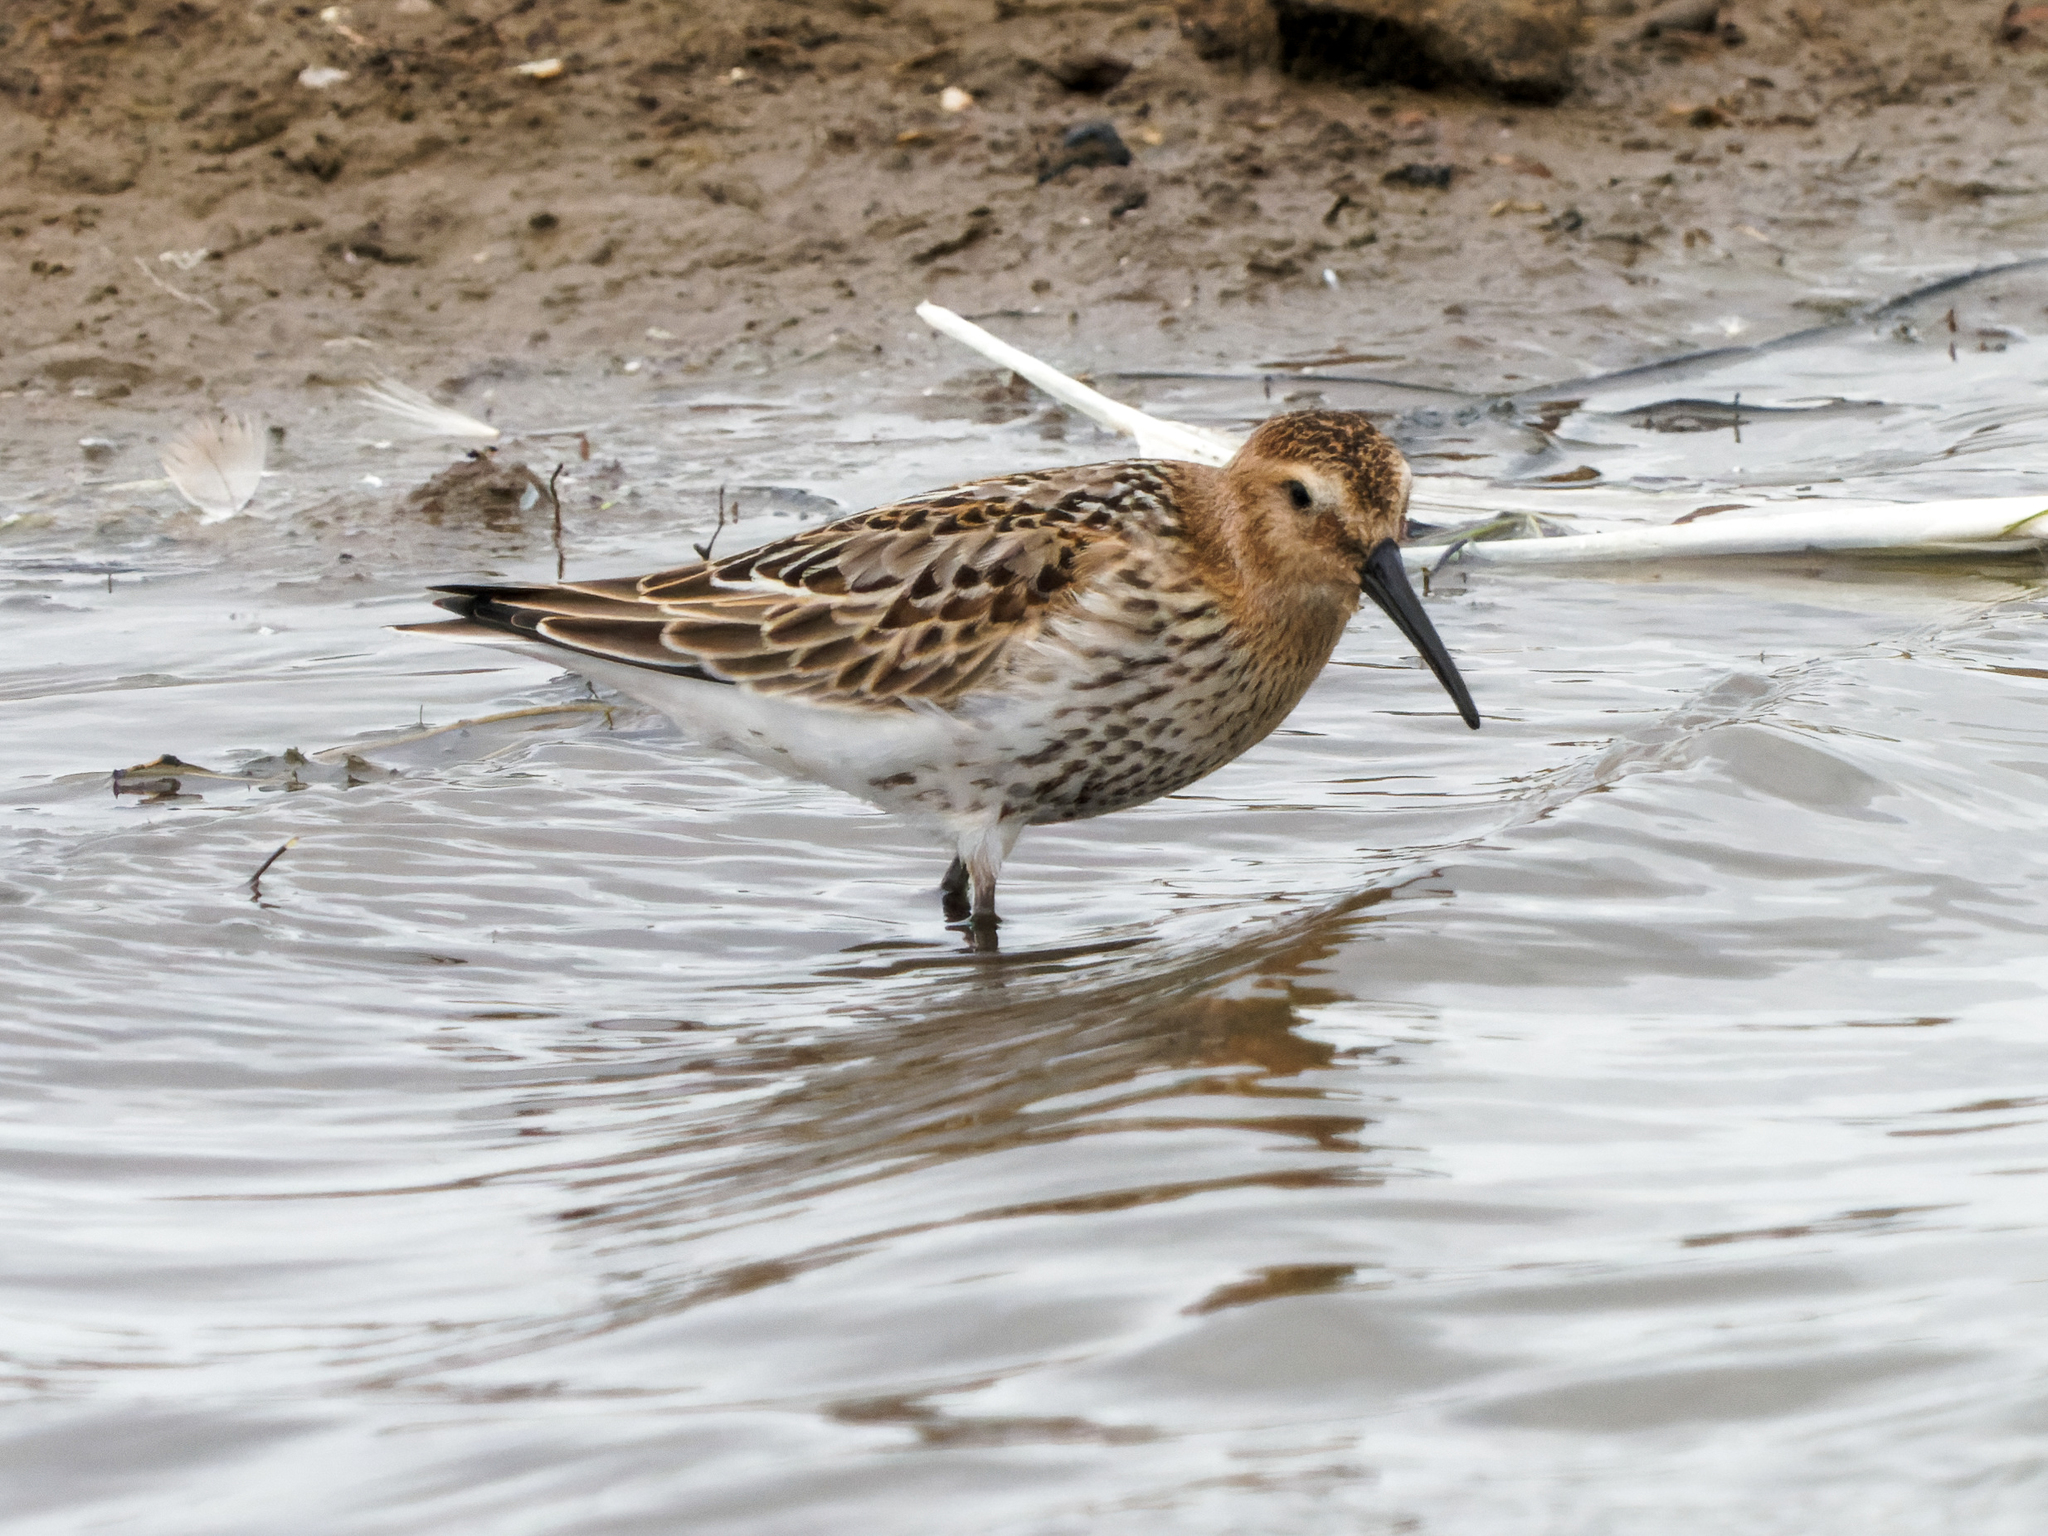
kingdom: Animalia
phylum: Chordata
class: Aves
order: Charadriiformes
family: Scolopacidae
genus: Calidris
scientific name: Calidris alpina
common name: Dunlin
